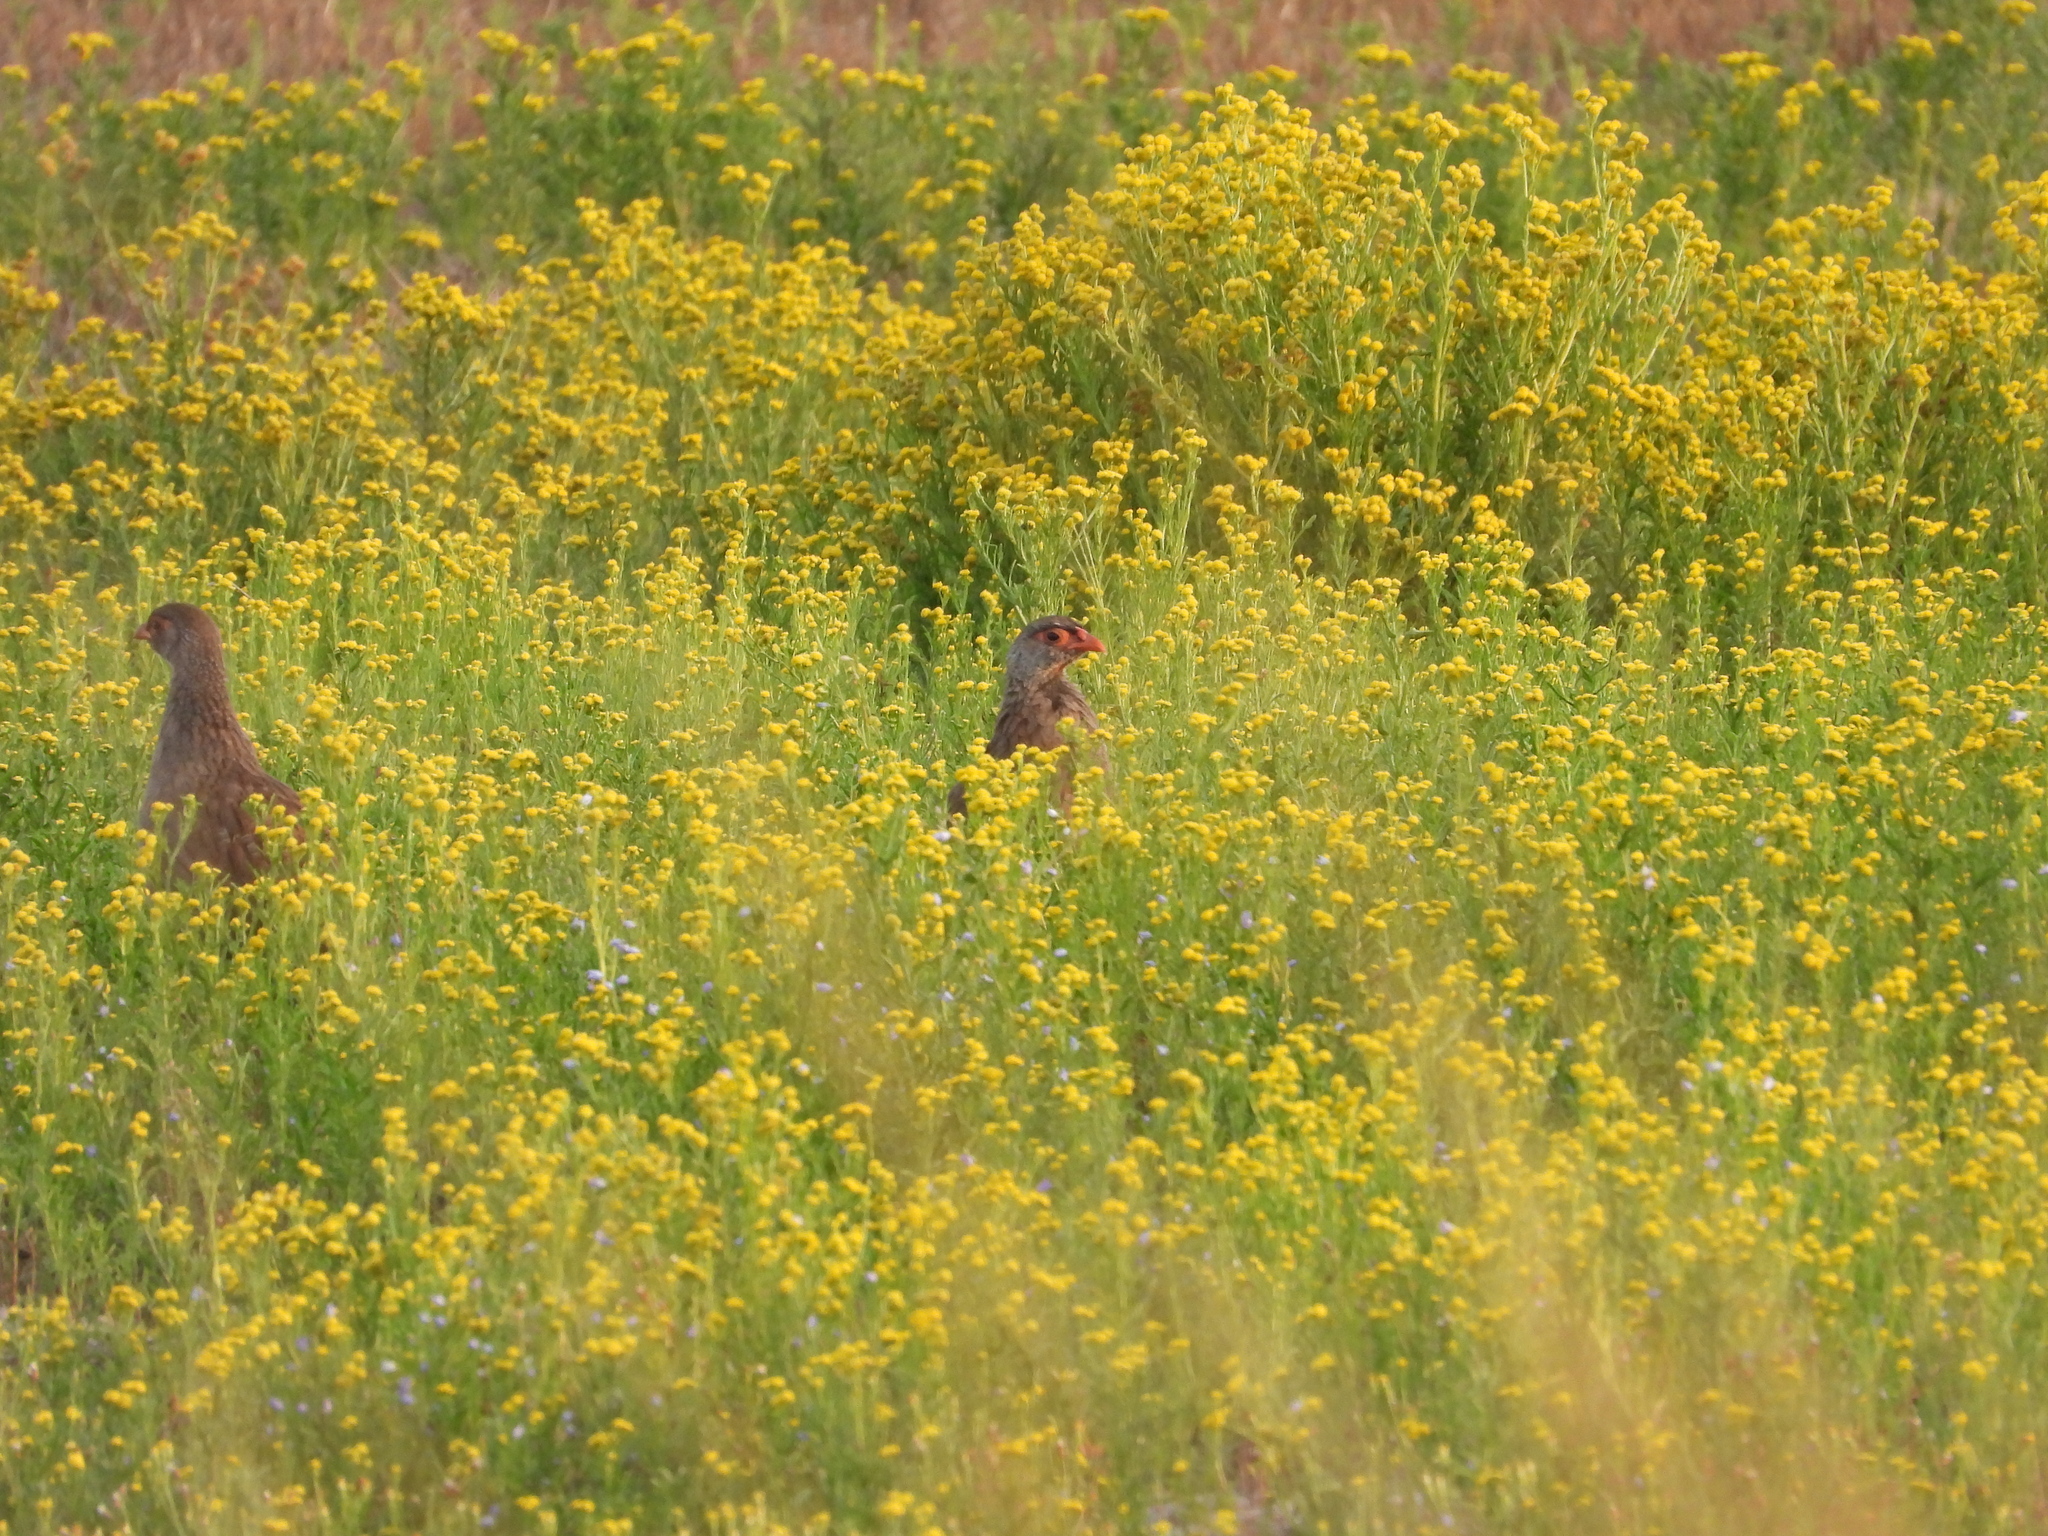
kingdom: Animalia
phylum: Chordata
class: Aves
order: Galliformes
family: Phasianidae
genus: Pternistis
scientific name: Pternistis afer
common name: Red-necked spurfowl
